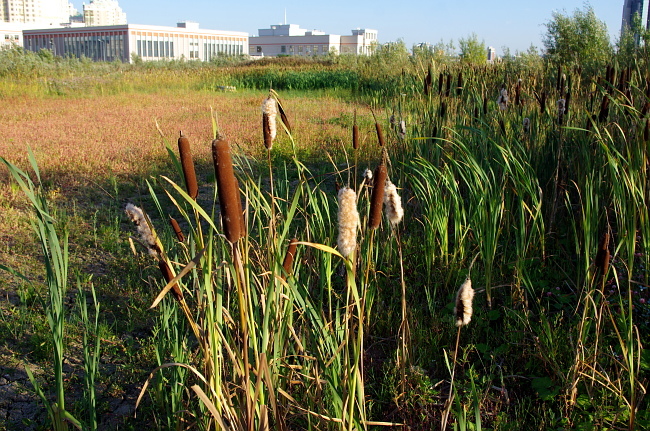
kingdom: Plantae
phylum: Tracheophyta
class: Liliopsida
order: Poales
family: Typhaceae
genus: Typha
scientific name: Typha latifolia
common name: Broadleaf cattail
